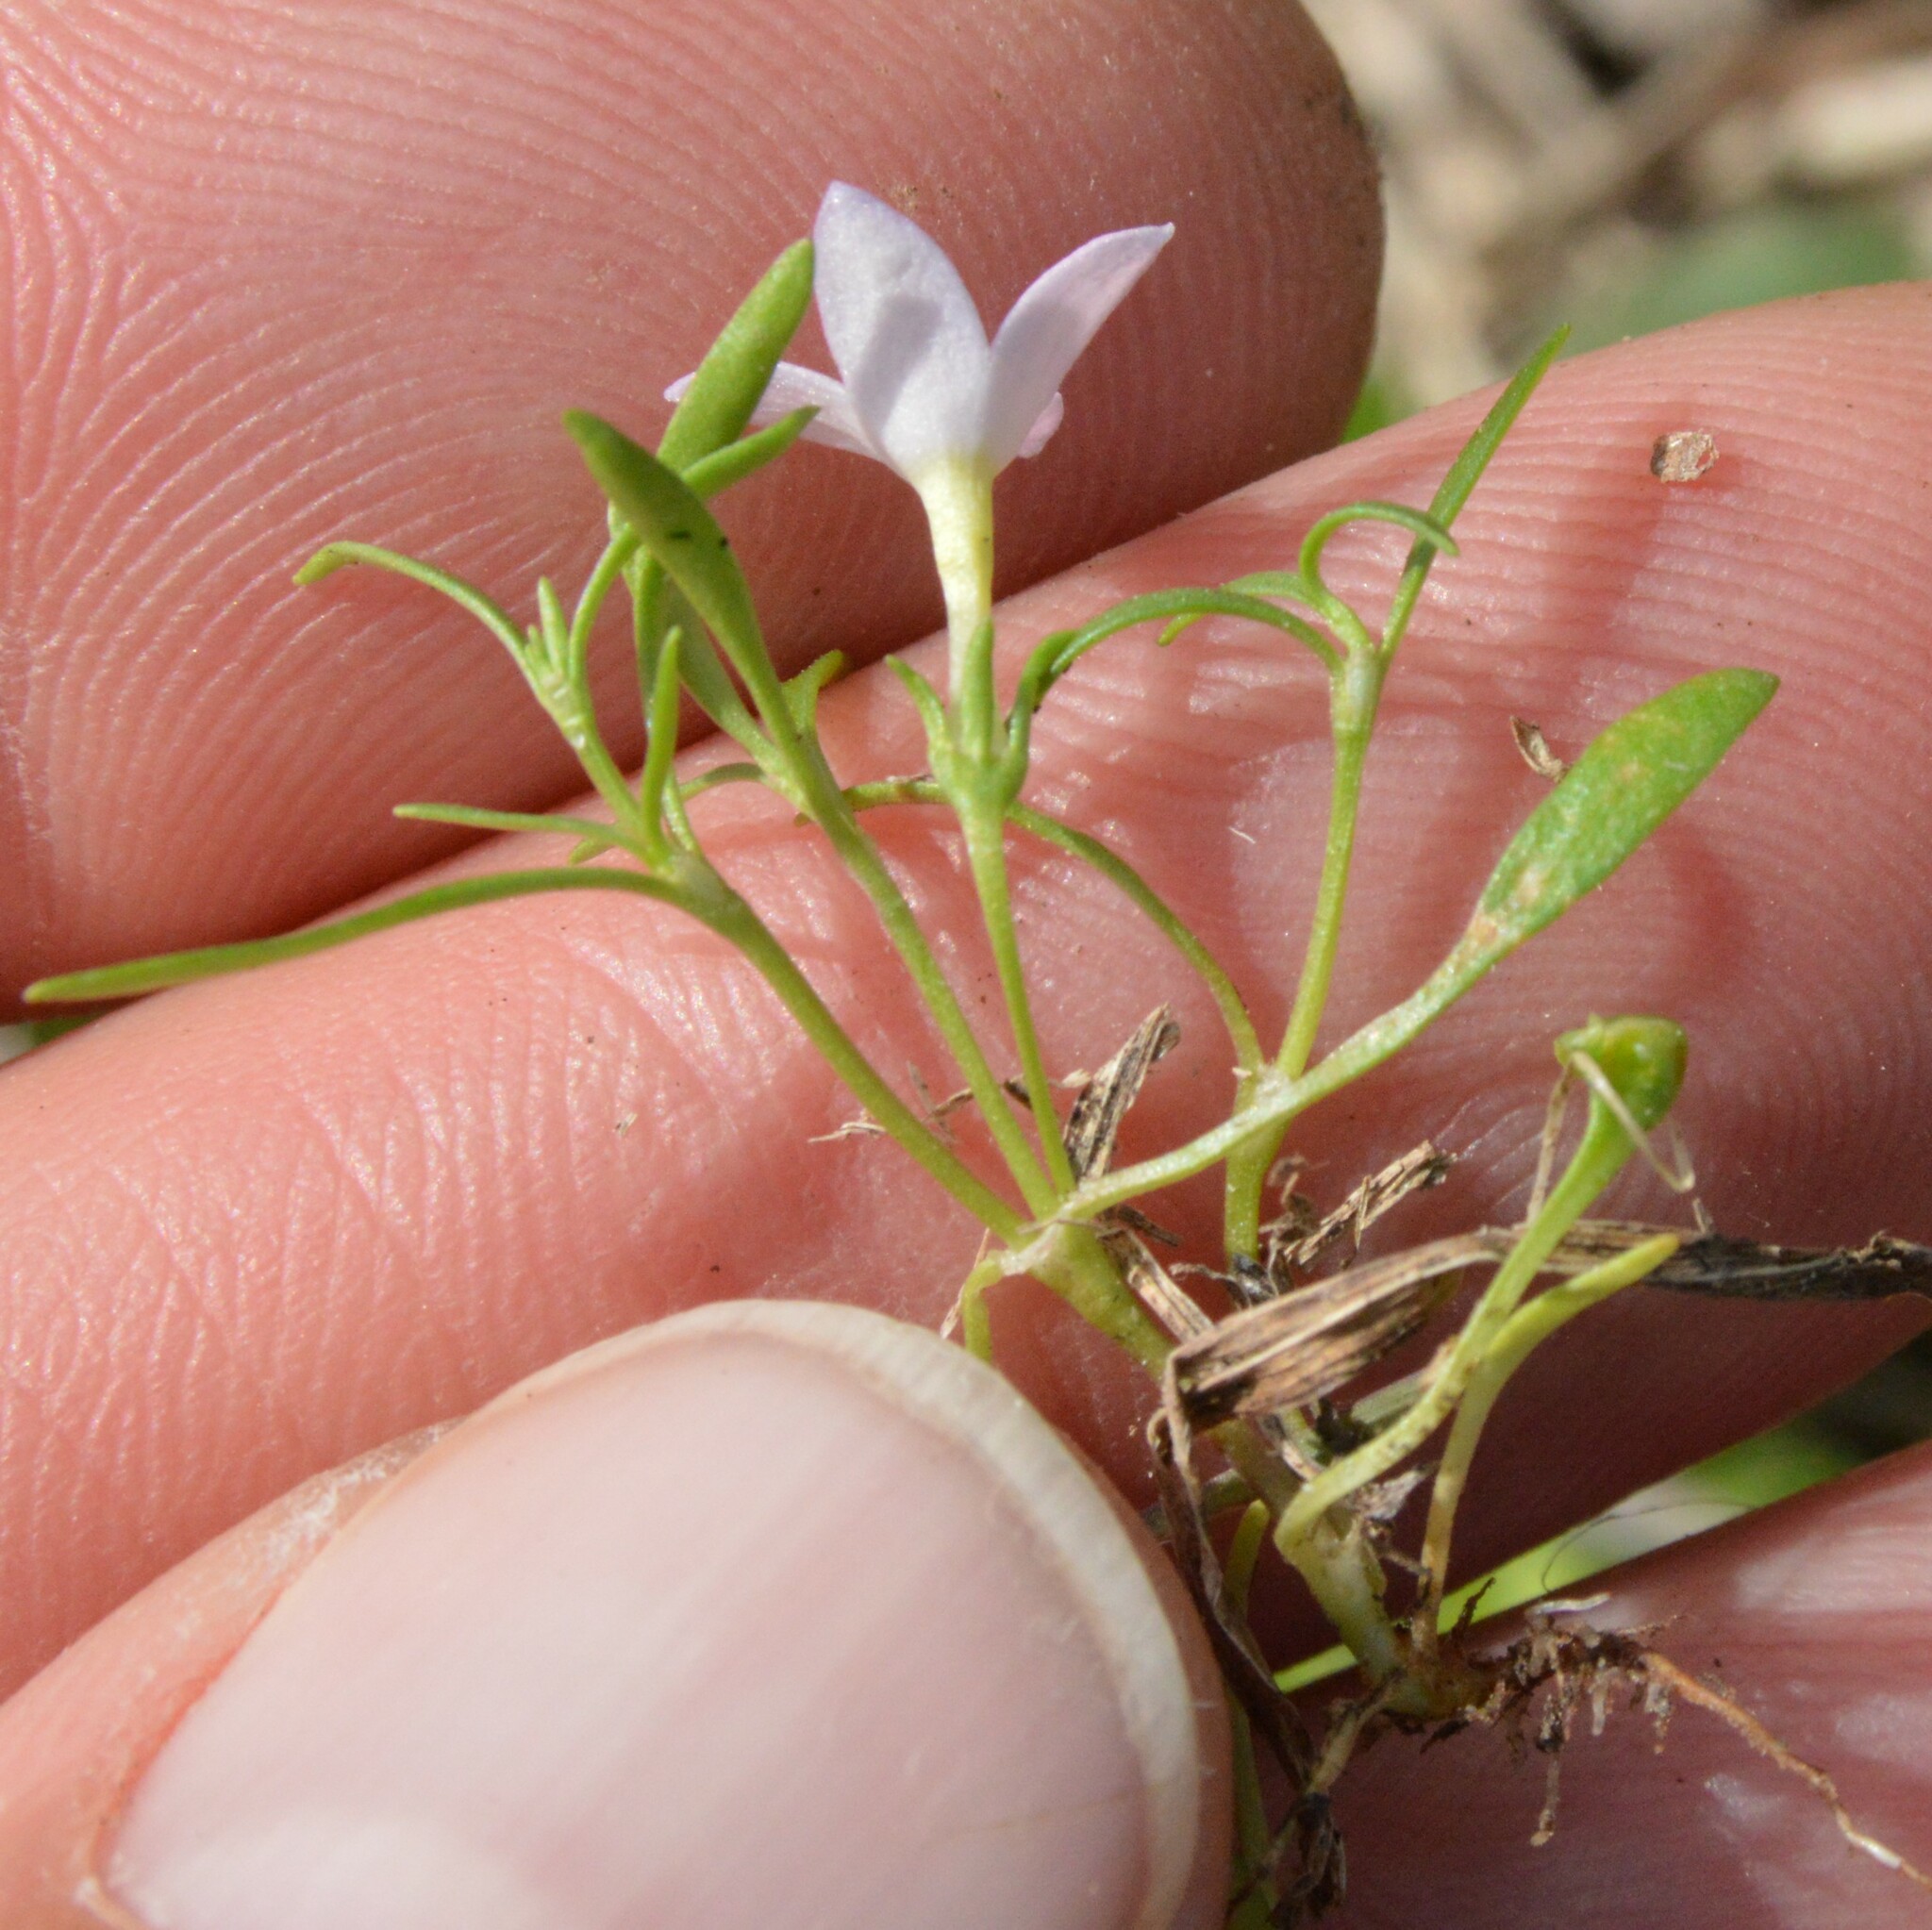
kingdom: Plantae
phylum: Tracheophyta
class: Magnoliopsida
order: Gentianales
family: Rubiaceae
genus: Houstonia
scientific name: Houstonia rosea
